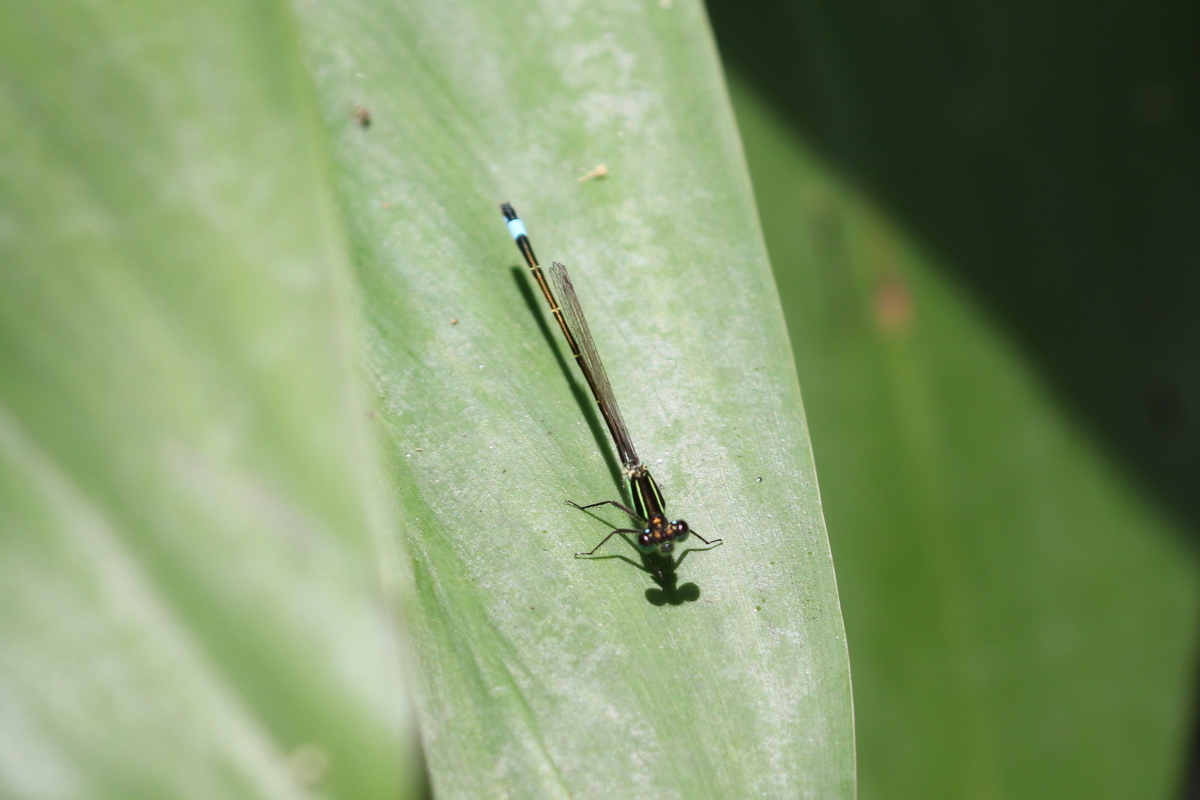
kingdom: Animalia
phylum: Arthropoda
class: Insecta
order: Odonata
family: Coenagrionidae
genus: Ischnura
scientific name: Ischnura ramburii
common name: Rambur's forktail
